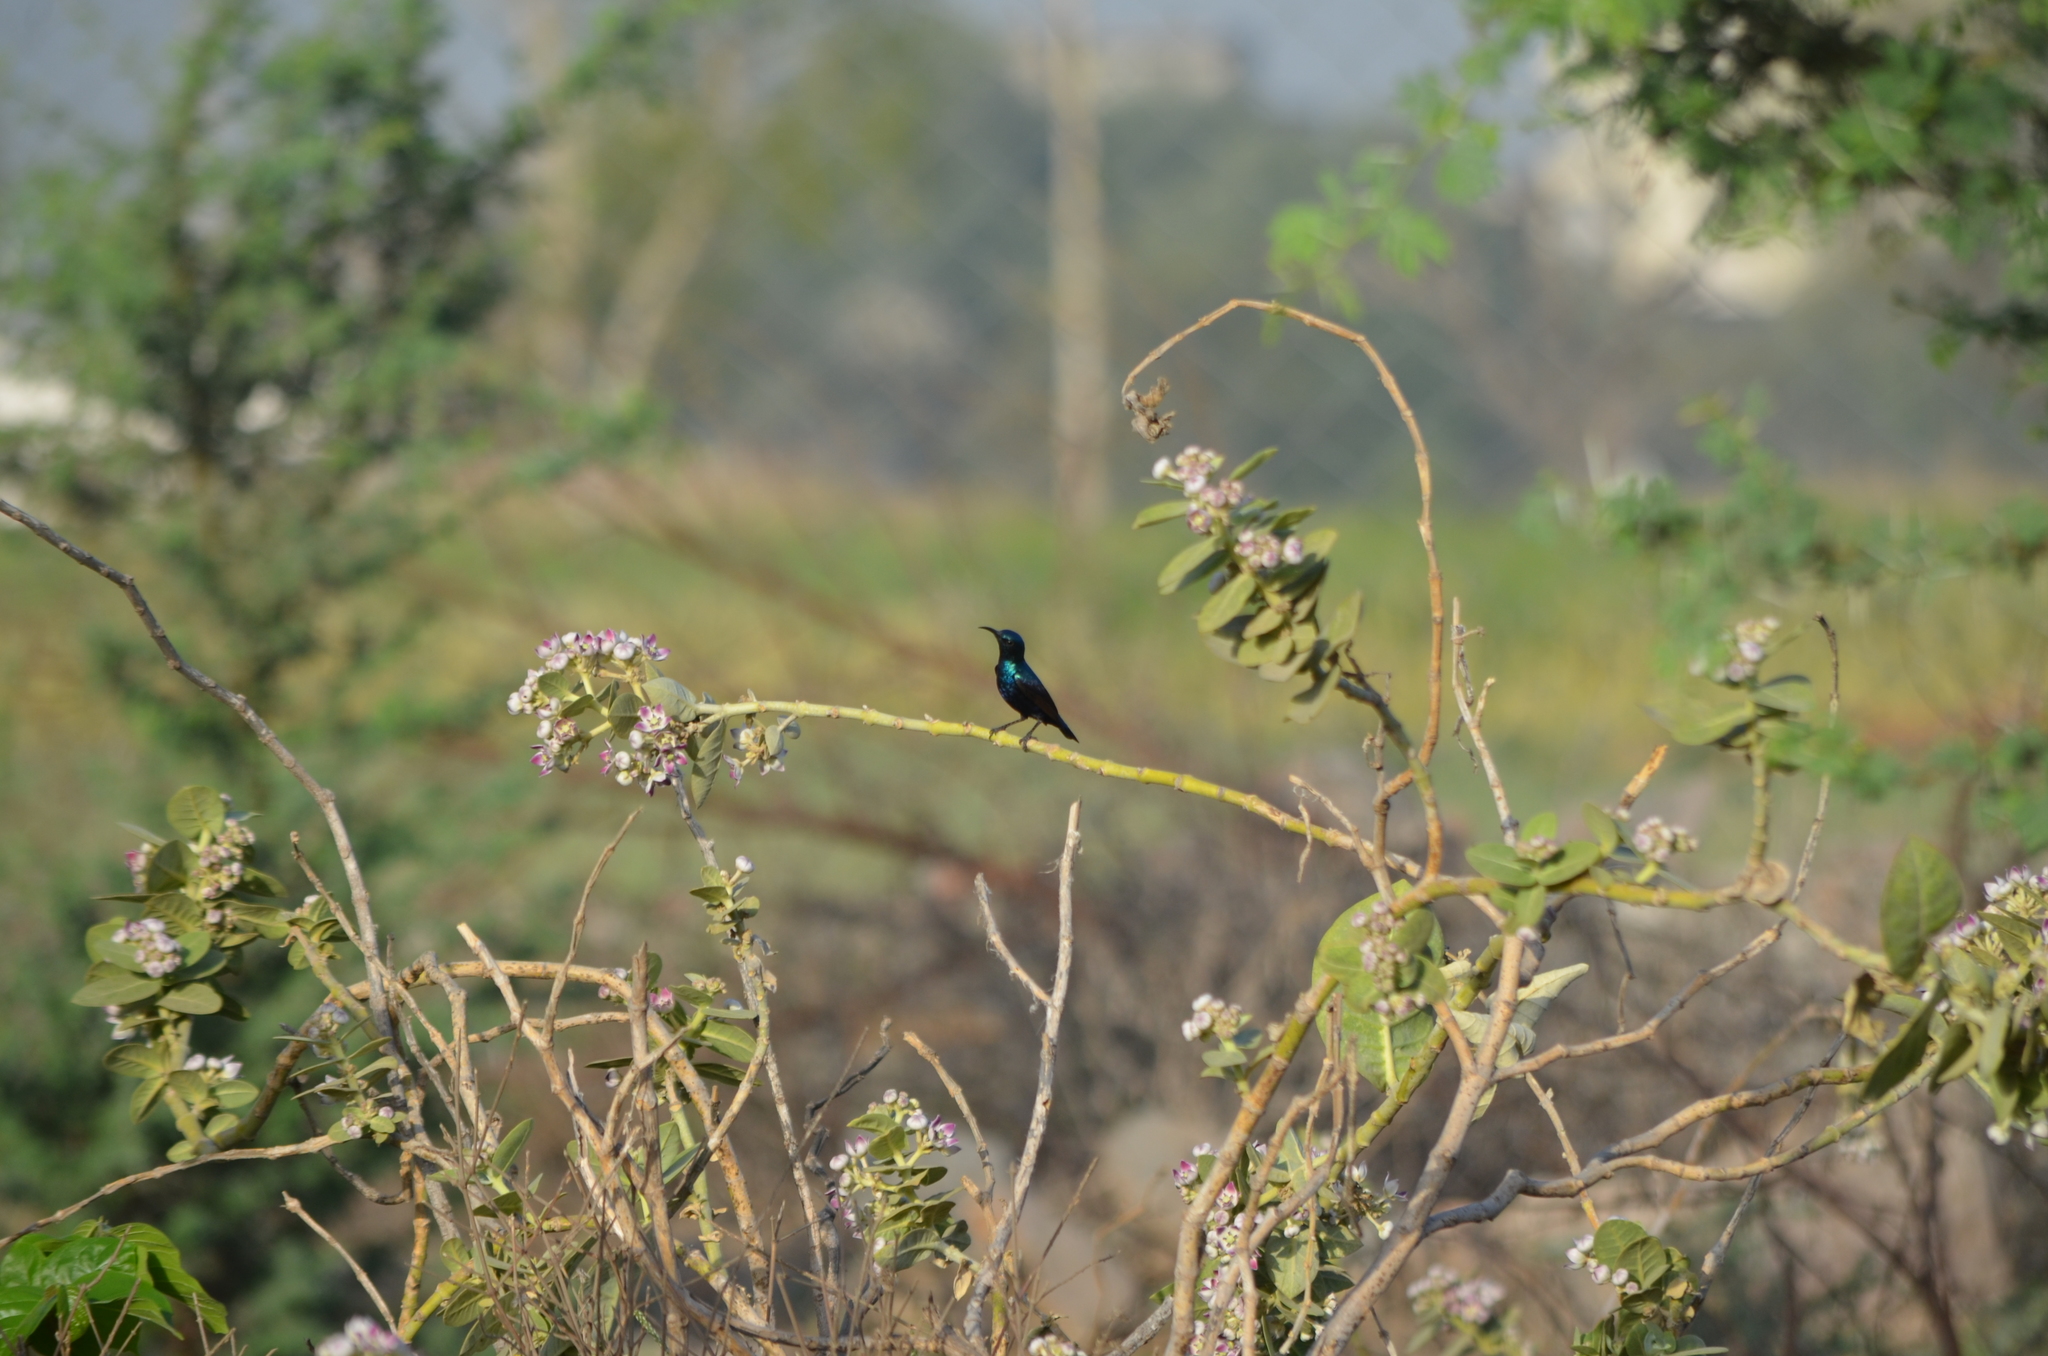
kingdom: Animalia
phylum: Chordata
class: Aves
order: Passeriformes
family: Nectariniidae
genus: Cinnyris
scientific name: Cinnyris asiaticus
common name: Purple sunbird
